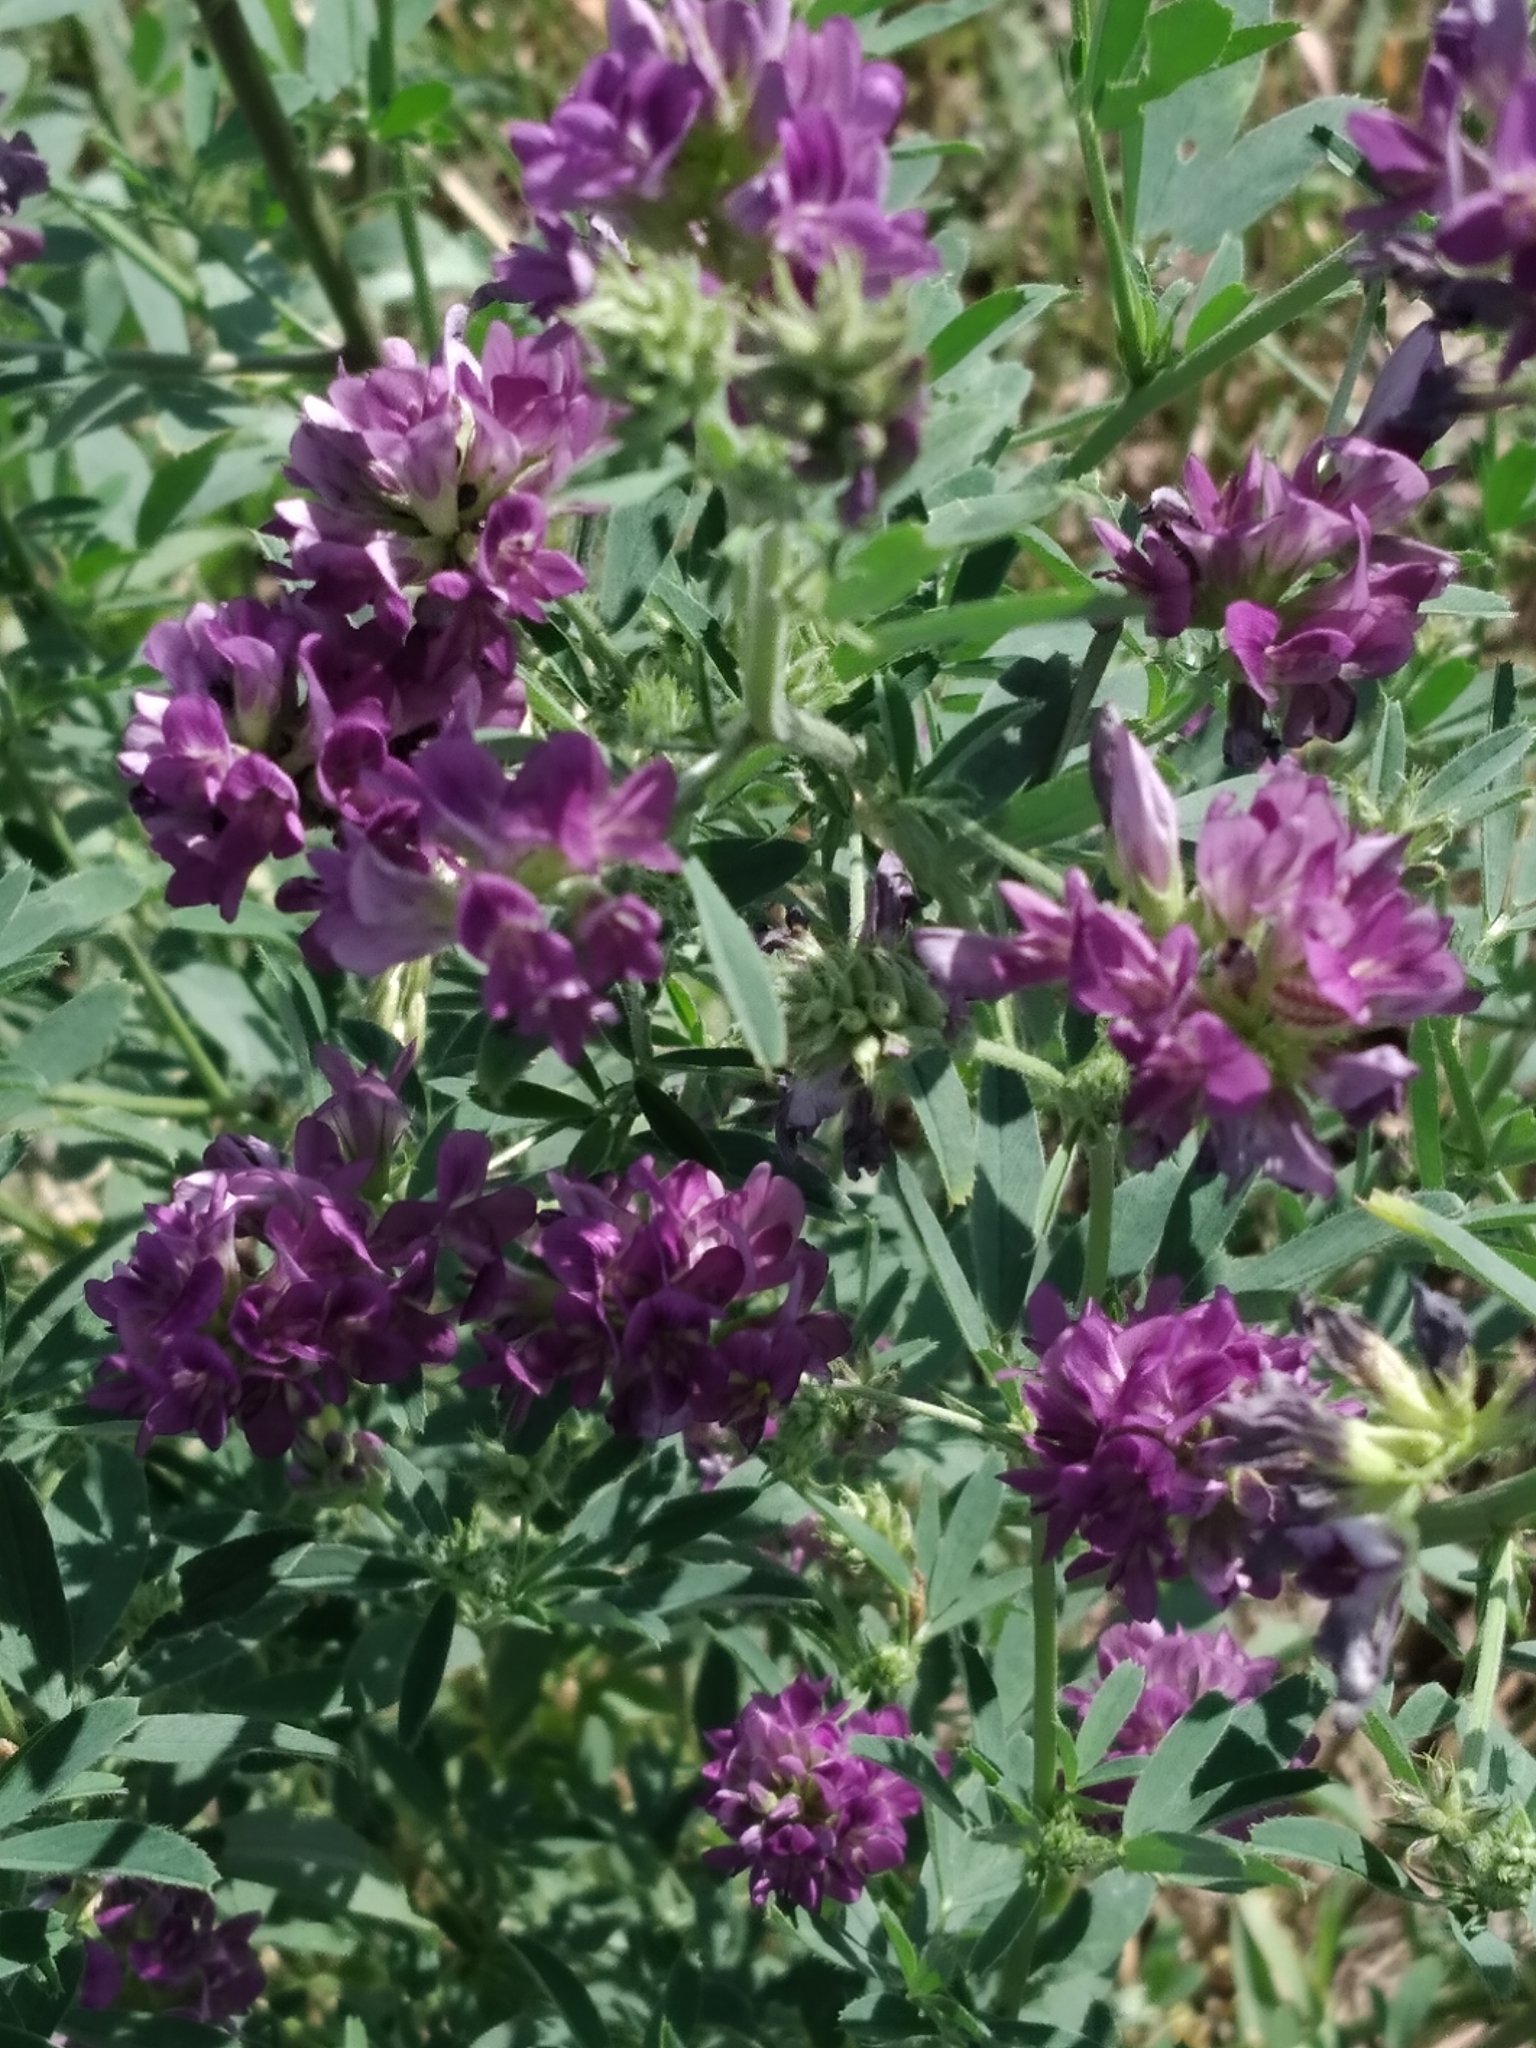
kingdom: Plantae
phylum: Tracheophyta
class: Magnoliopsida
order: Fabales
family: Fabaceae
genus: Medicago
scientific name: Medicago sativa
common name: Alfalfa
